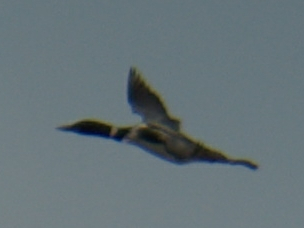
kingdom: Animalia
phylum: Chordata
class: Aves
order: Gaviiformes
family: Gaviidae
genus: Gavia
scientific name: Gavia immer
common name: Common loon
